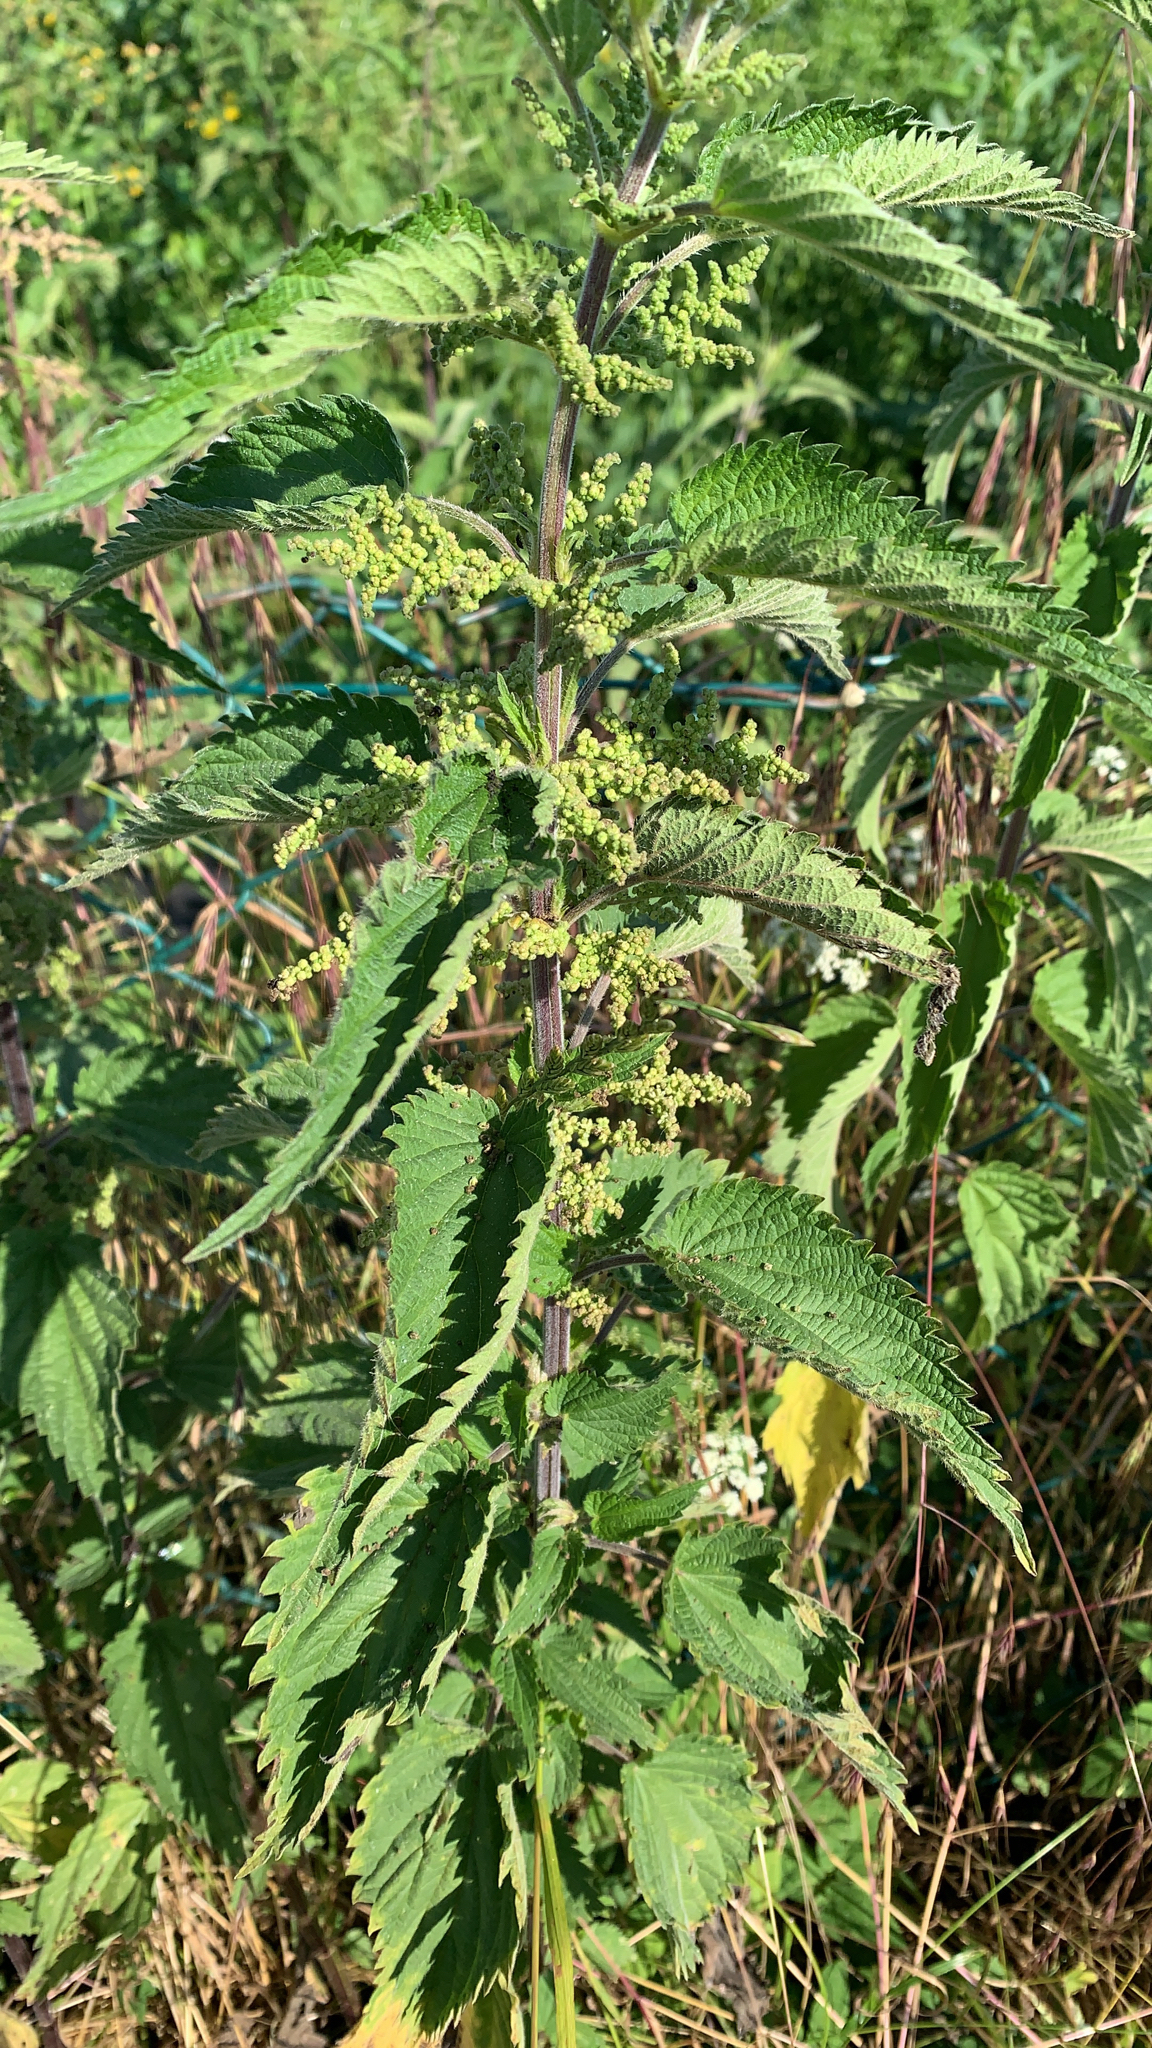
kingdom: Plantae
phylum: Tracheophyta
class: Magnoliopsida
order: Rosales
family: Urticaceae
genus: Urtica
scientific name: Urtica dioica
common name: Common nettle
